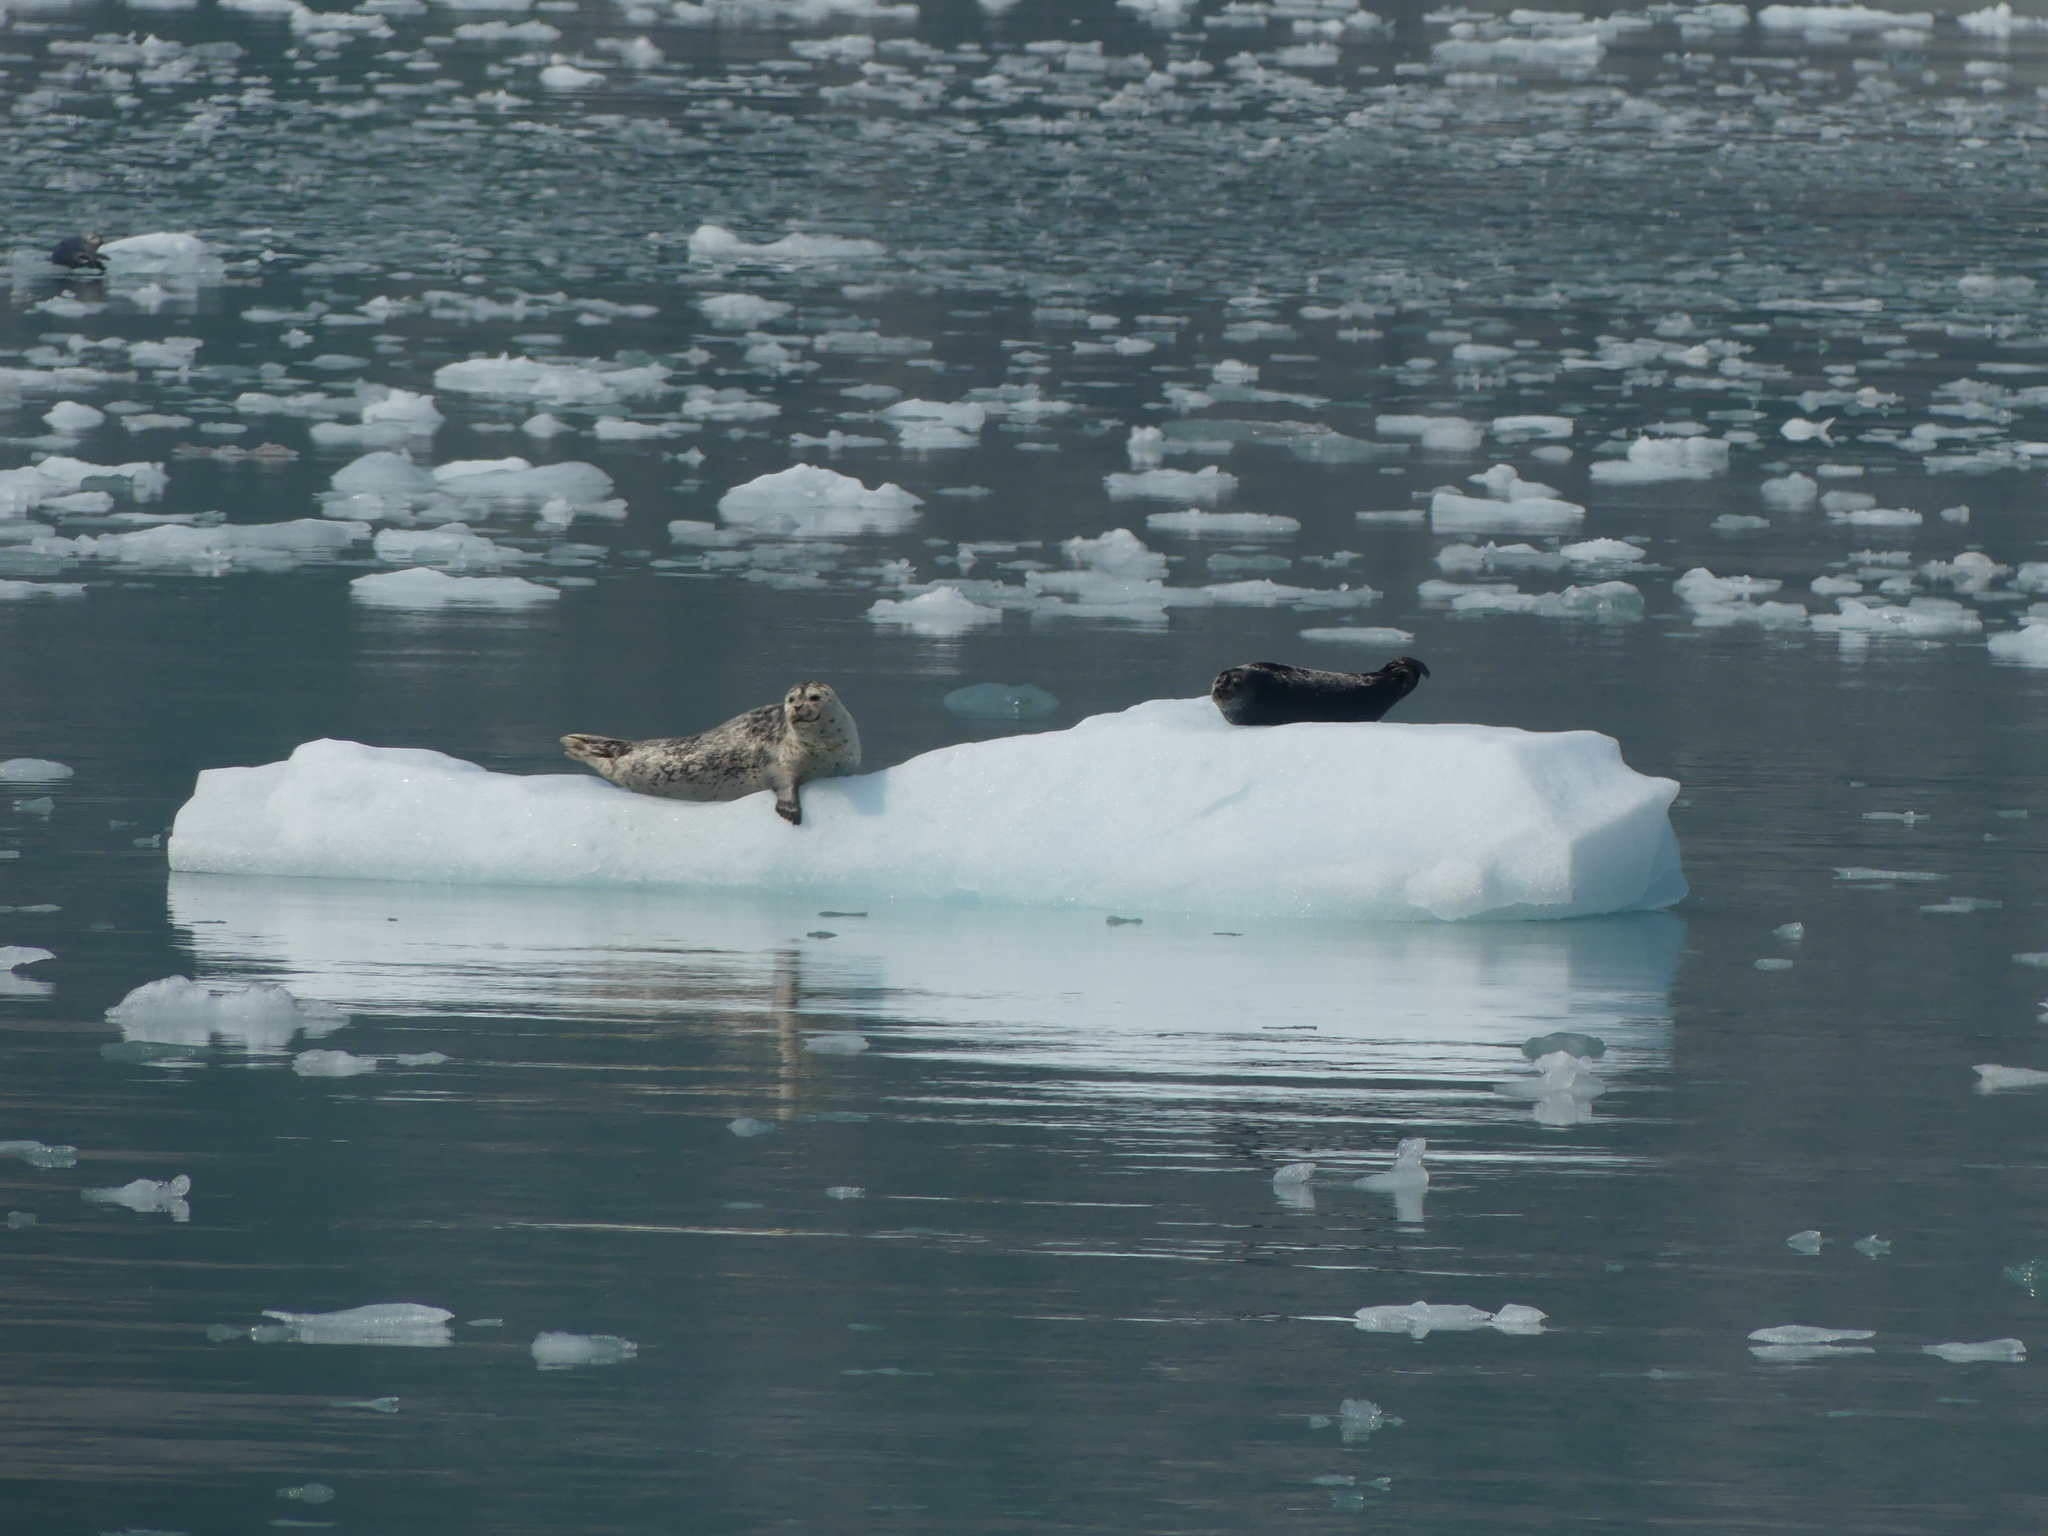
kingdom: Animalia
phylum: Chordata
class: Mammalia
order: Carnivora
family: Phocidae
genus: Phoca
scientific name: Phoca vitulina
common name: Harbor seal
